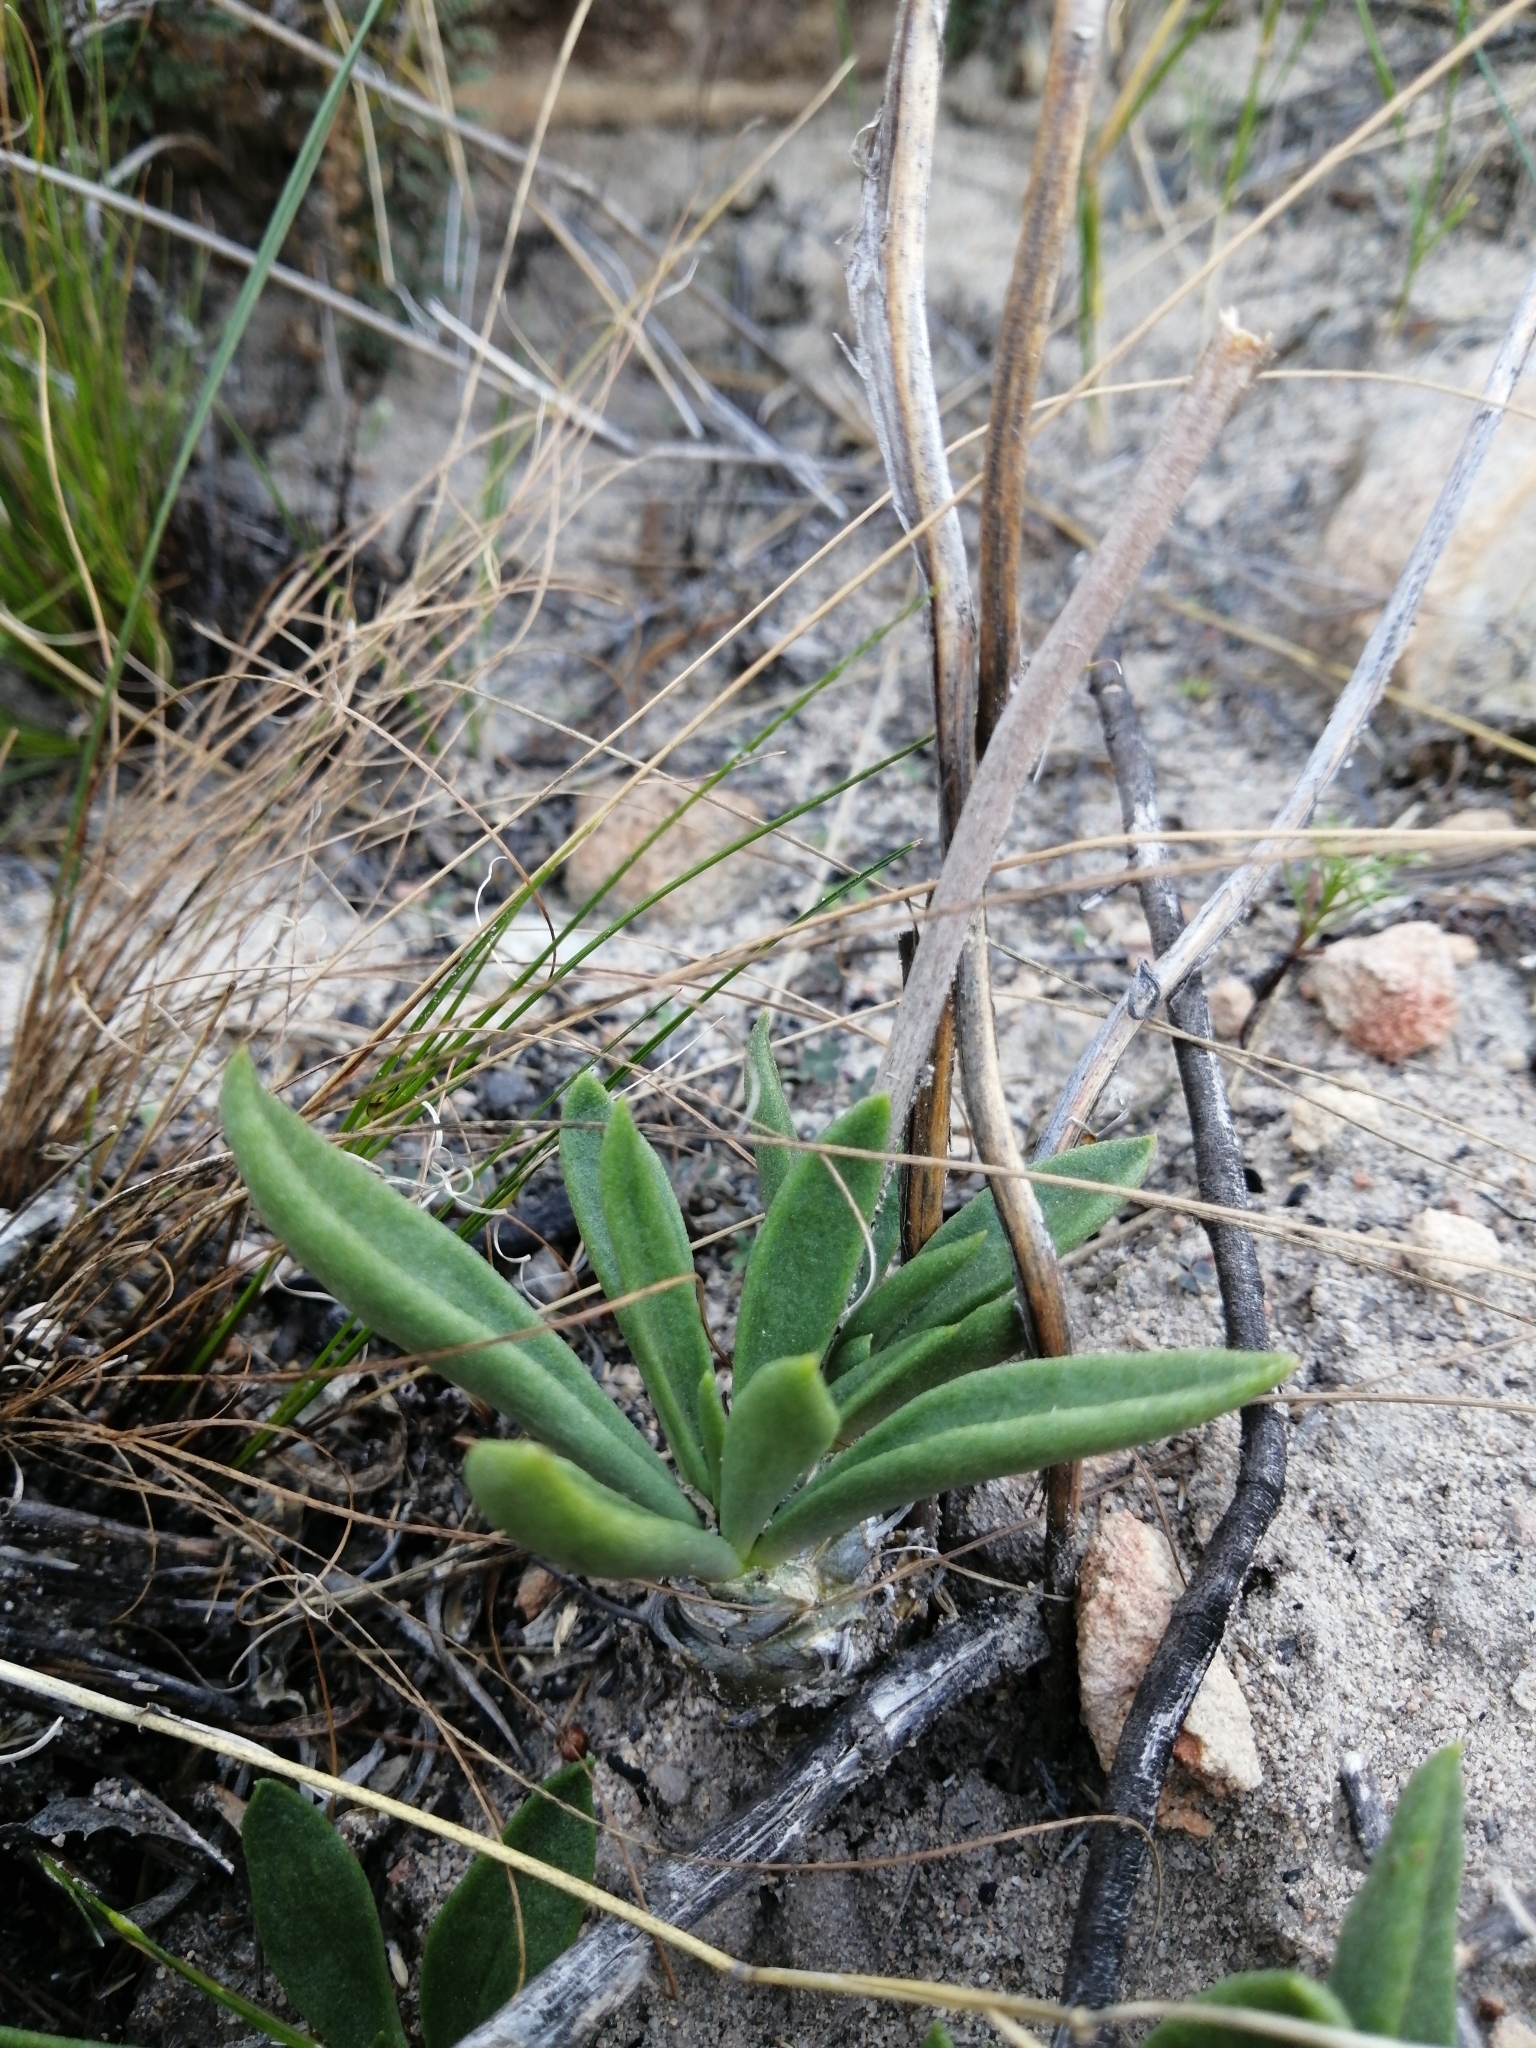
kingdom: Plantae
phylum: Tracheophyta
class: Magnoliopsida
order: Saxifragales
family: Crassulaceae
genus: Tylecodon
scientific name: Tylecodon ventricosus
